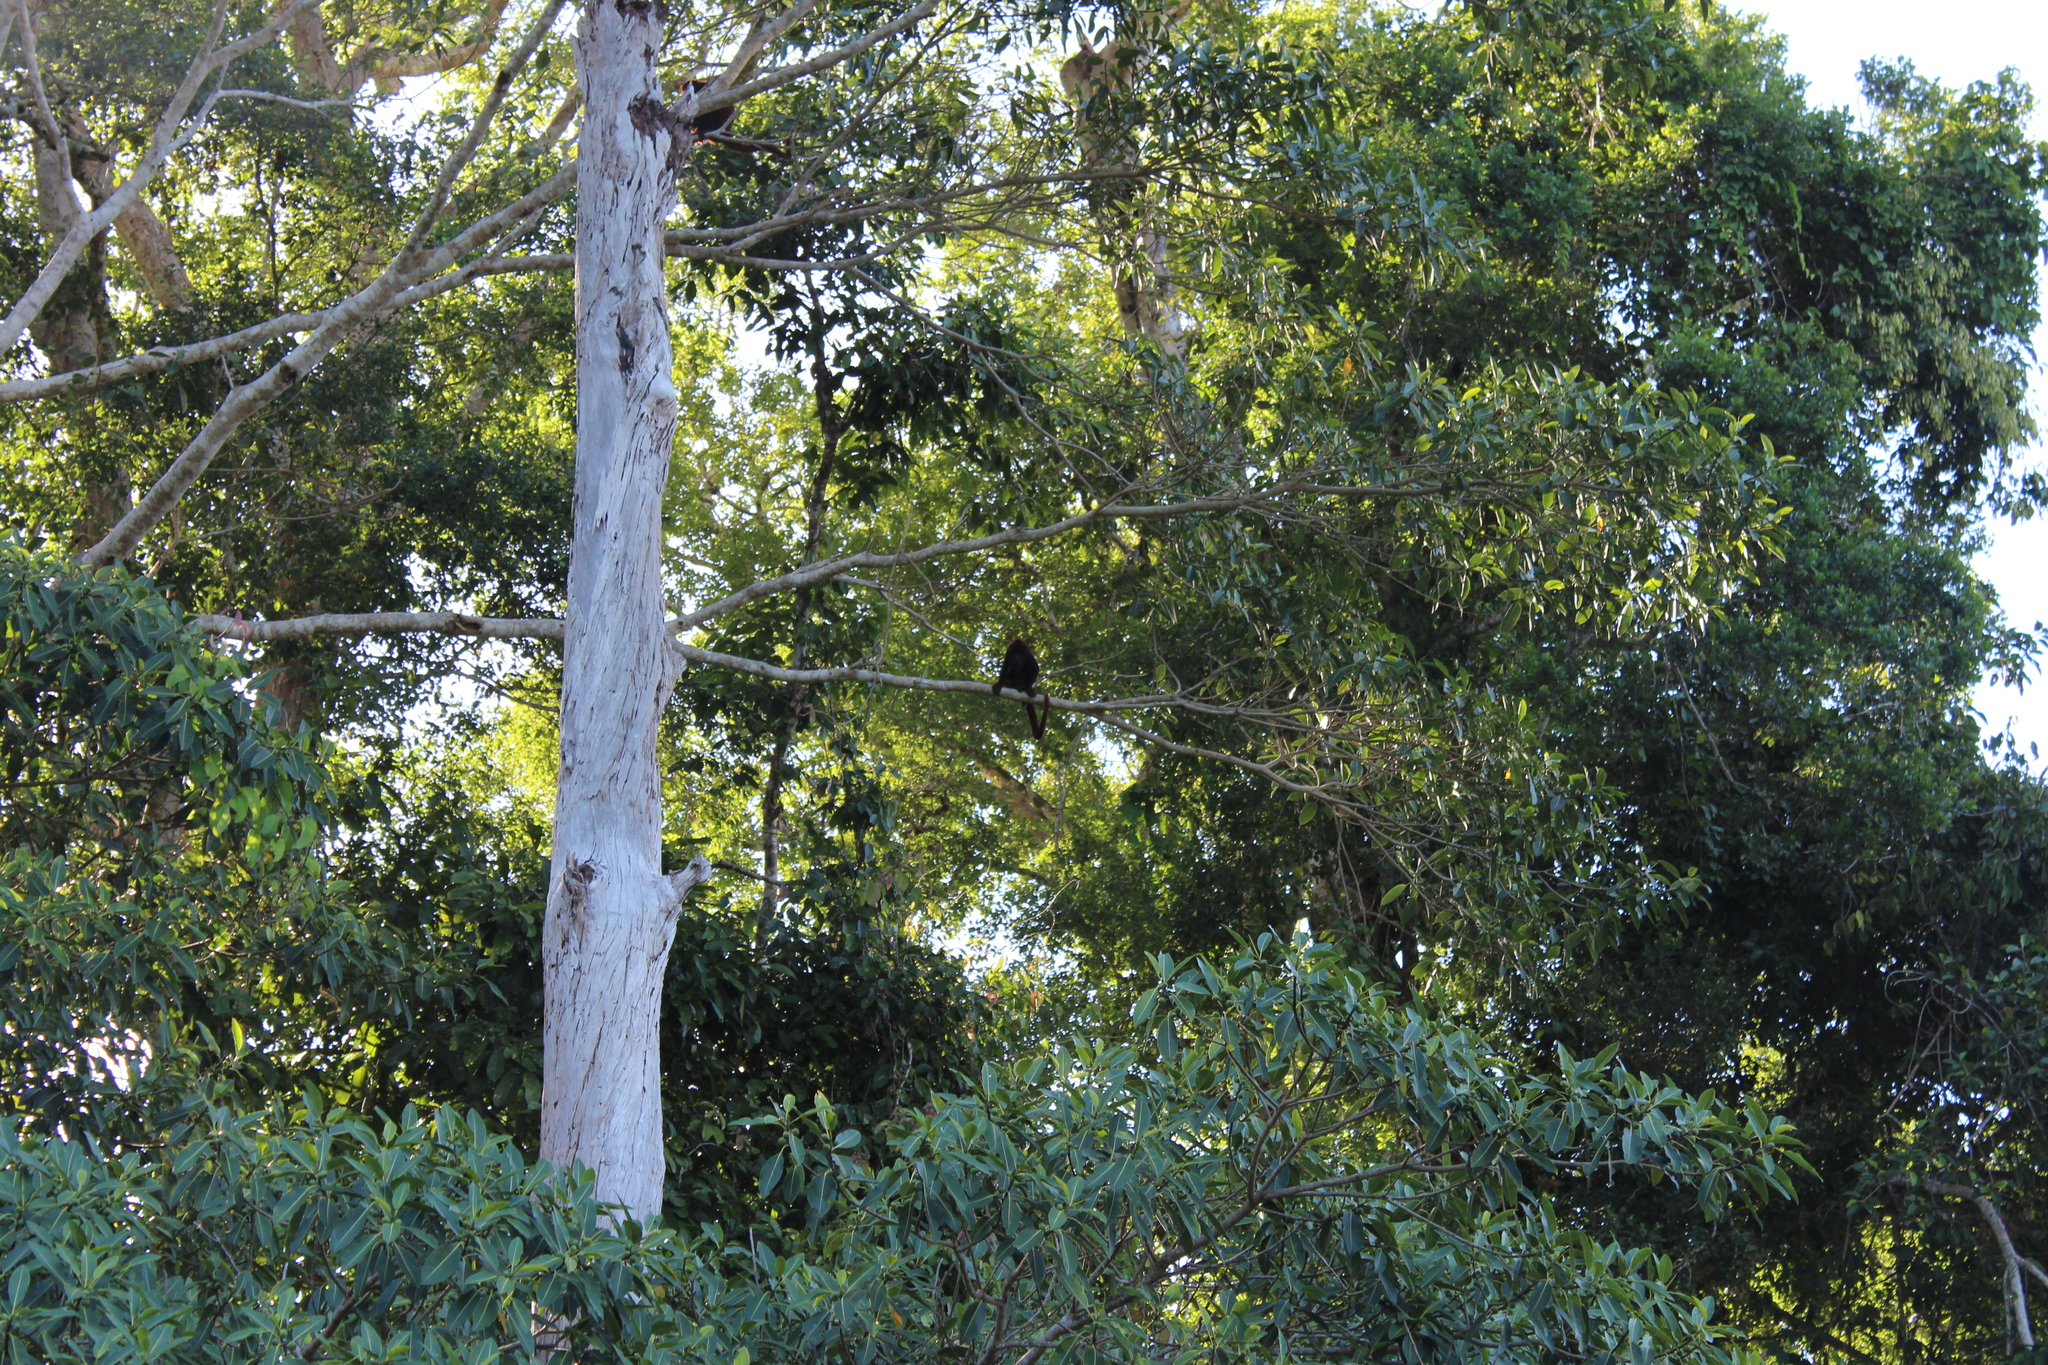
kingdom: Animalia
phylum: Chordata
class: Mammalia
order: Primates
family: Atelidae
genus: Alouatta
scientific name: Alouatta sara
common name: Bolivian red howler
